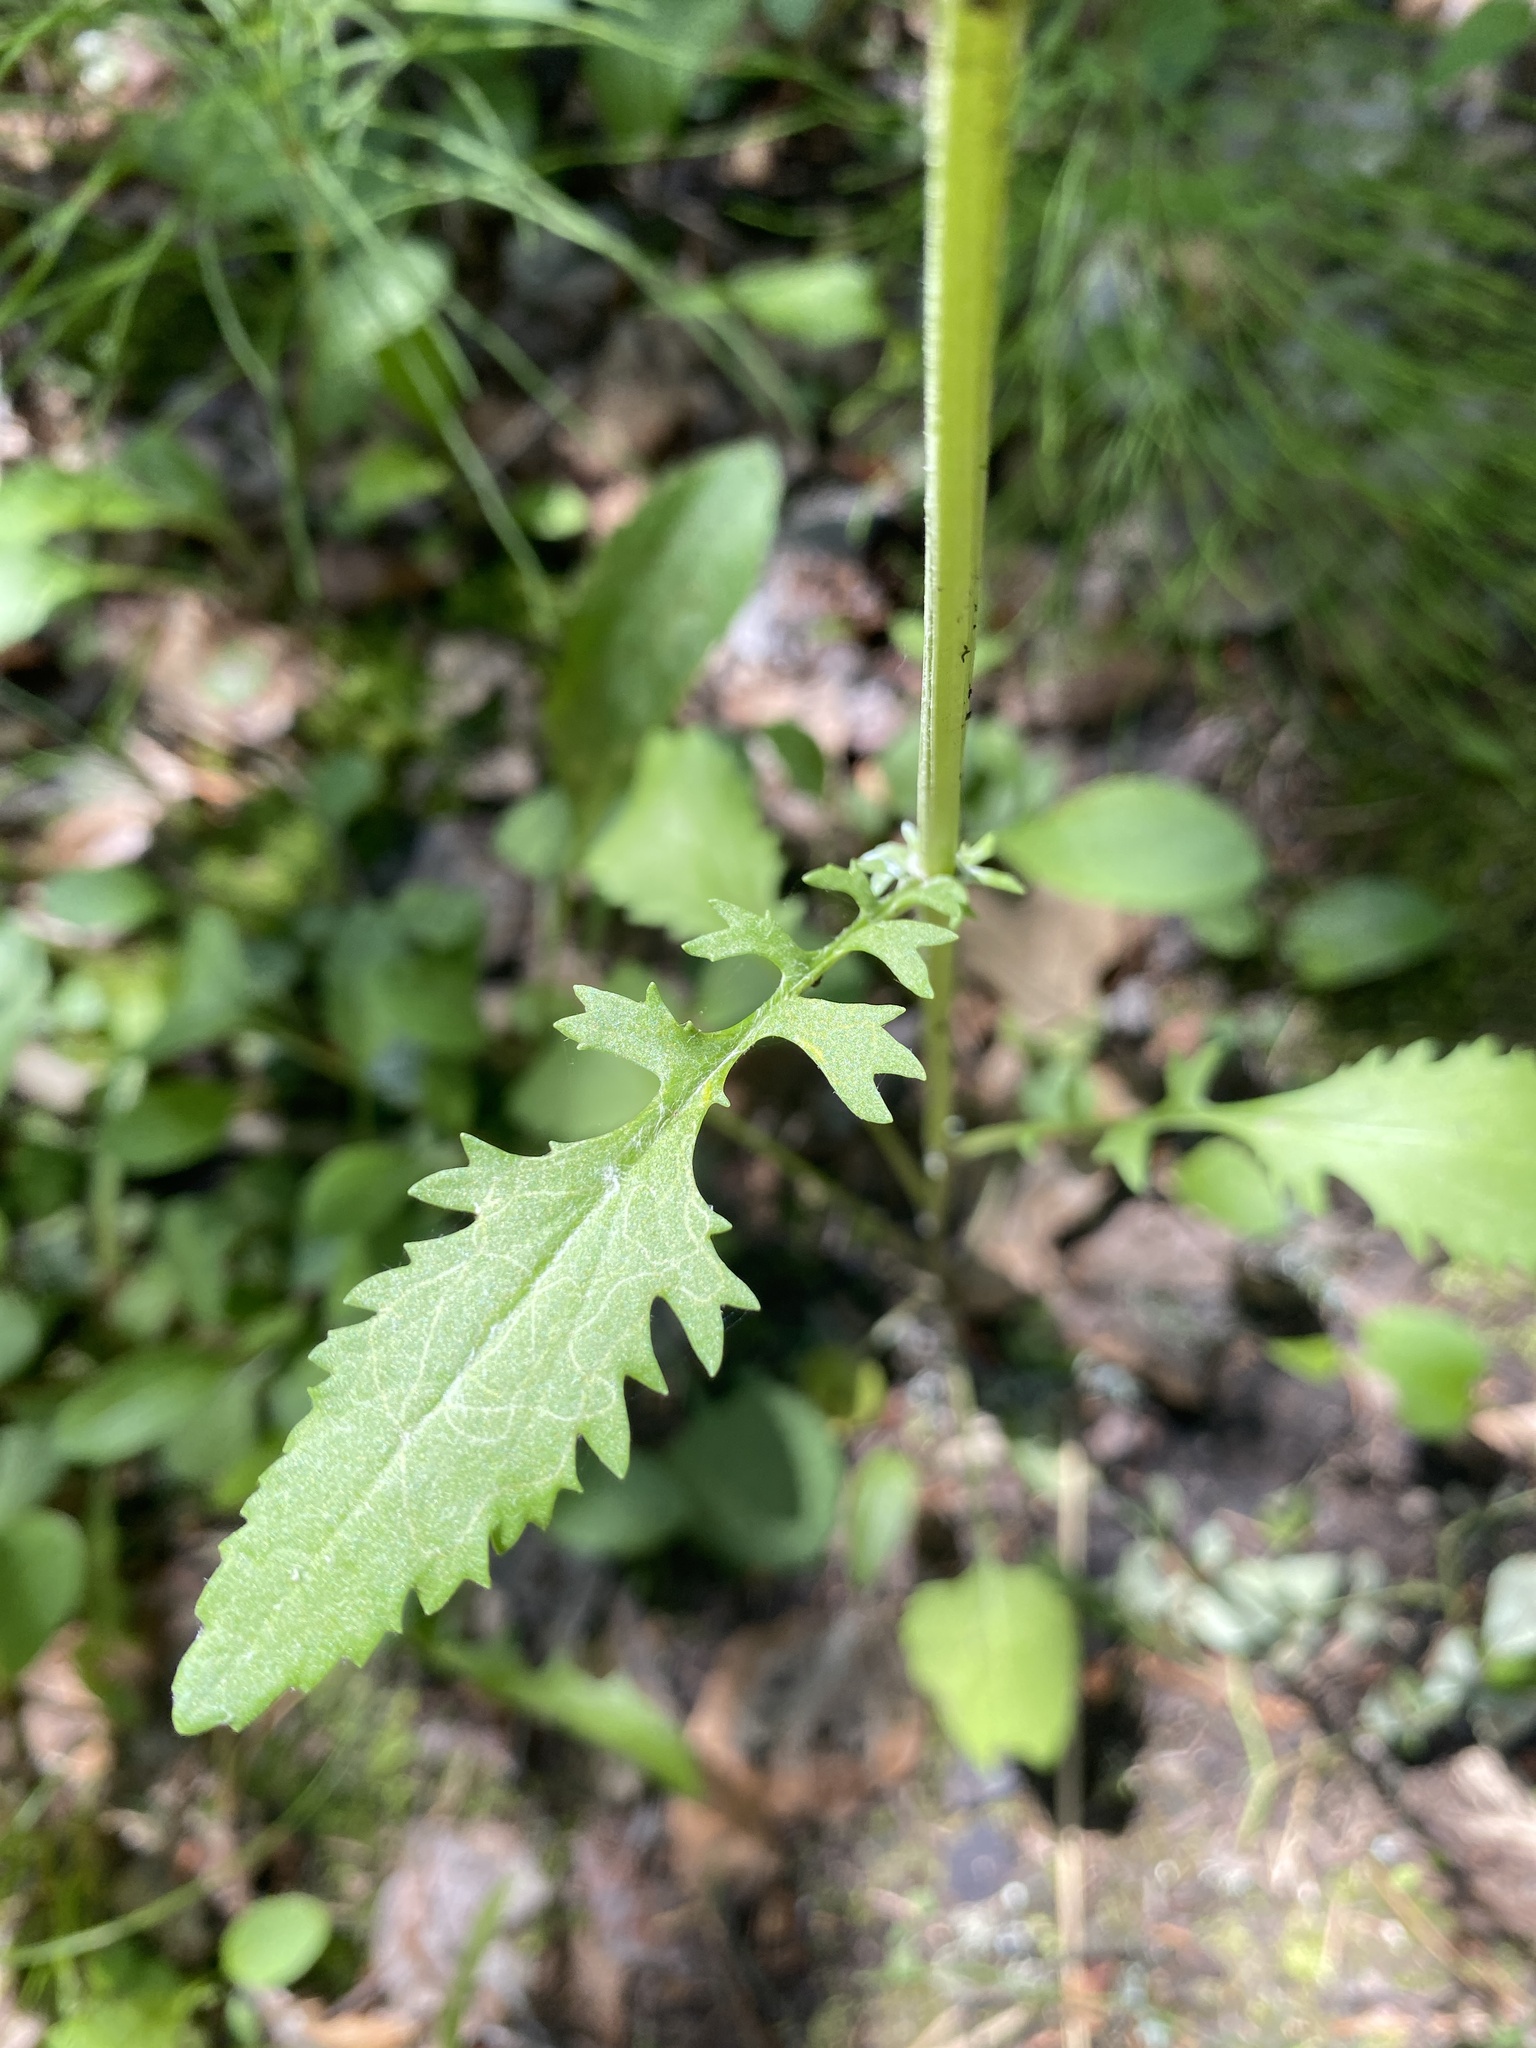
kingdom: Plantae
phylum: Tracheophyta
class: Magnoliopsida
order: Asterales
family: Asteraceae
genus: Packera
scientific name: Packera paupercula
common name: Balsam groundsel
